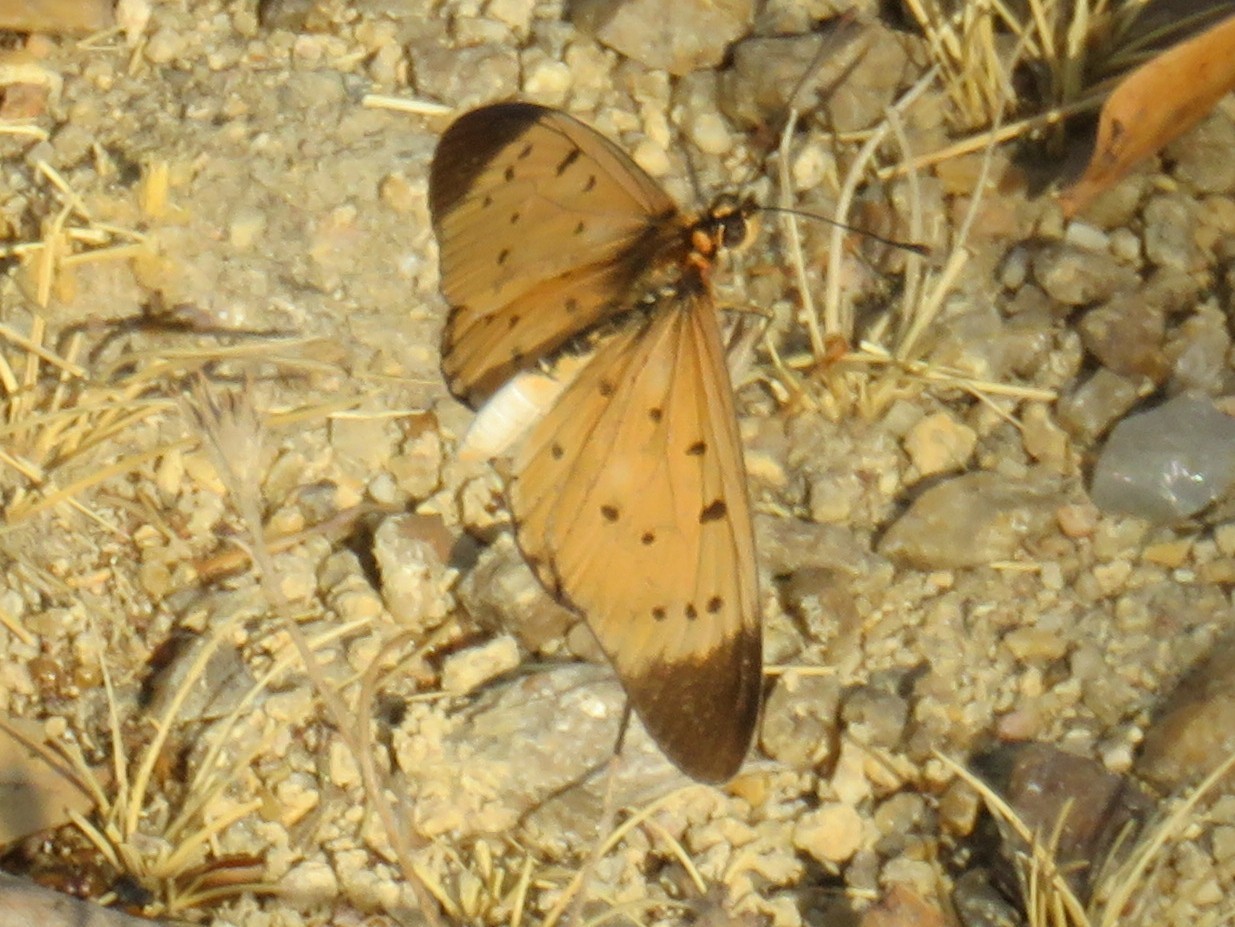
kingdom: Animalia
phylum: Arthropoda
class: Insecta
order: Lepidoptera
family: Nymphalidae
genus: Stephenia
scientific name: Stephenia
